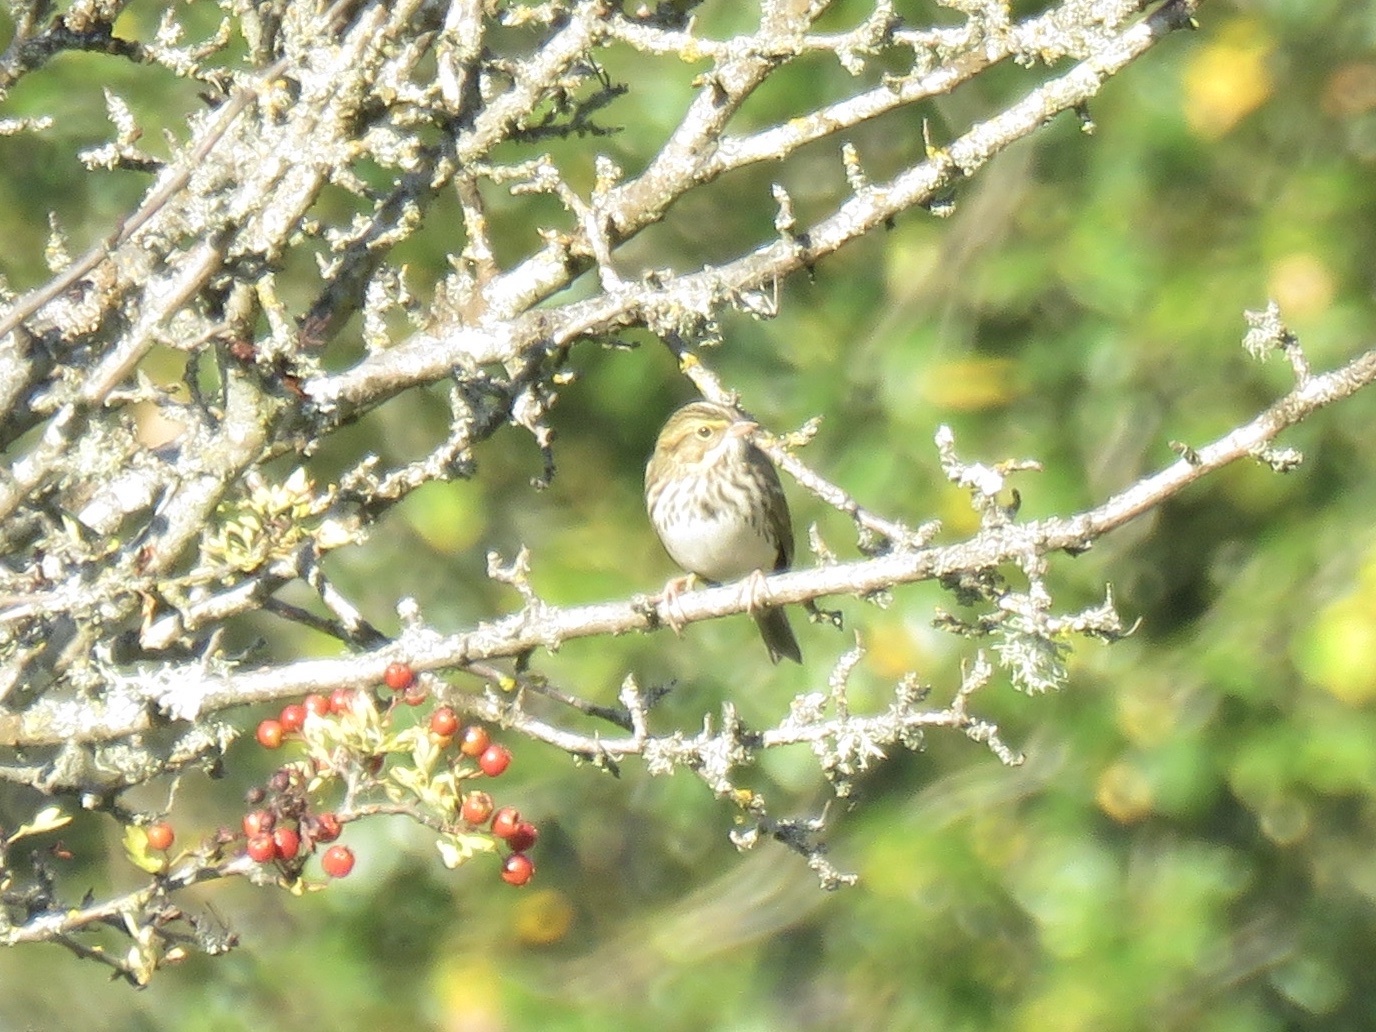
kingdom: Animalia
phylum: Chordata
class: Aves
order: Passeriformes
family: Passerellidae
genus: Passerculus
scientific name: Passerculus sandwichensis
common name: Savannah sparrow
